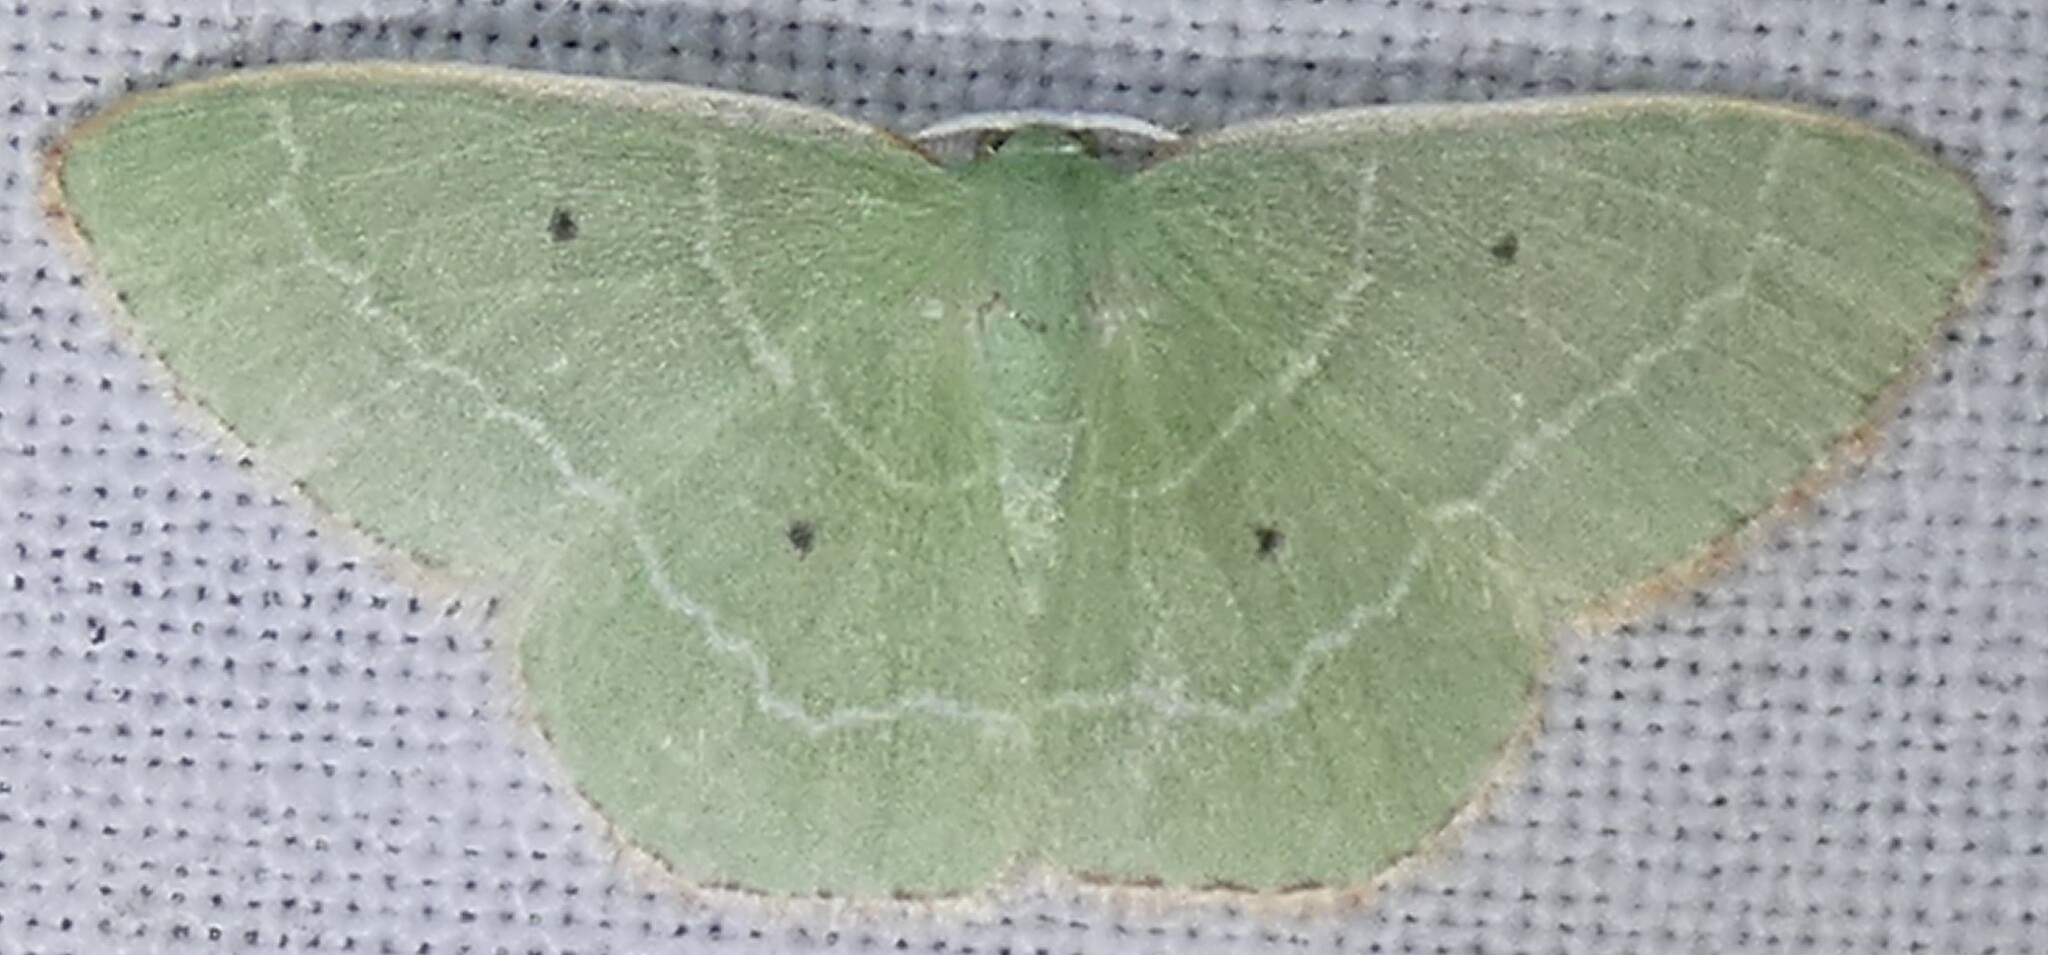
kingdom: Animalia
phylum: Arthropoda
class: Insecta
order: Lepidoptera
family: Geometridae
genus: Nemoria
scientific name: Nemoria elfa
